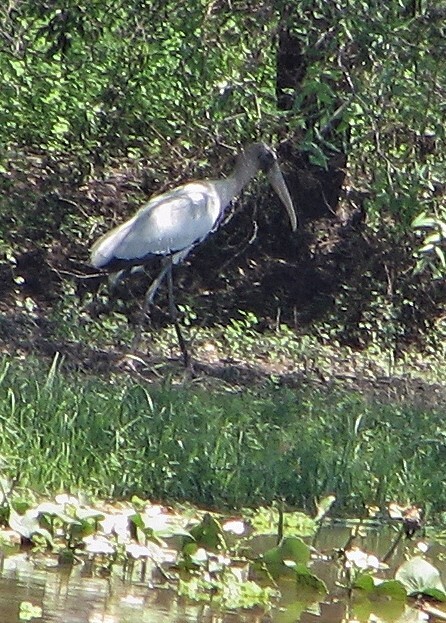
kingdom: Animalia
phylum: Chordata
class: Aves
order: Ciconiiformes
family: Ciconiidae
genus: Mycteria
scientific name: Mycteria americana
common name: Wood stork
